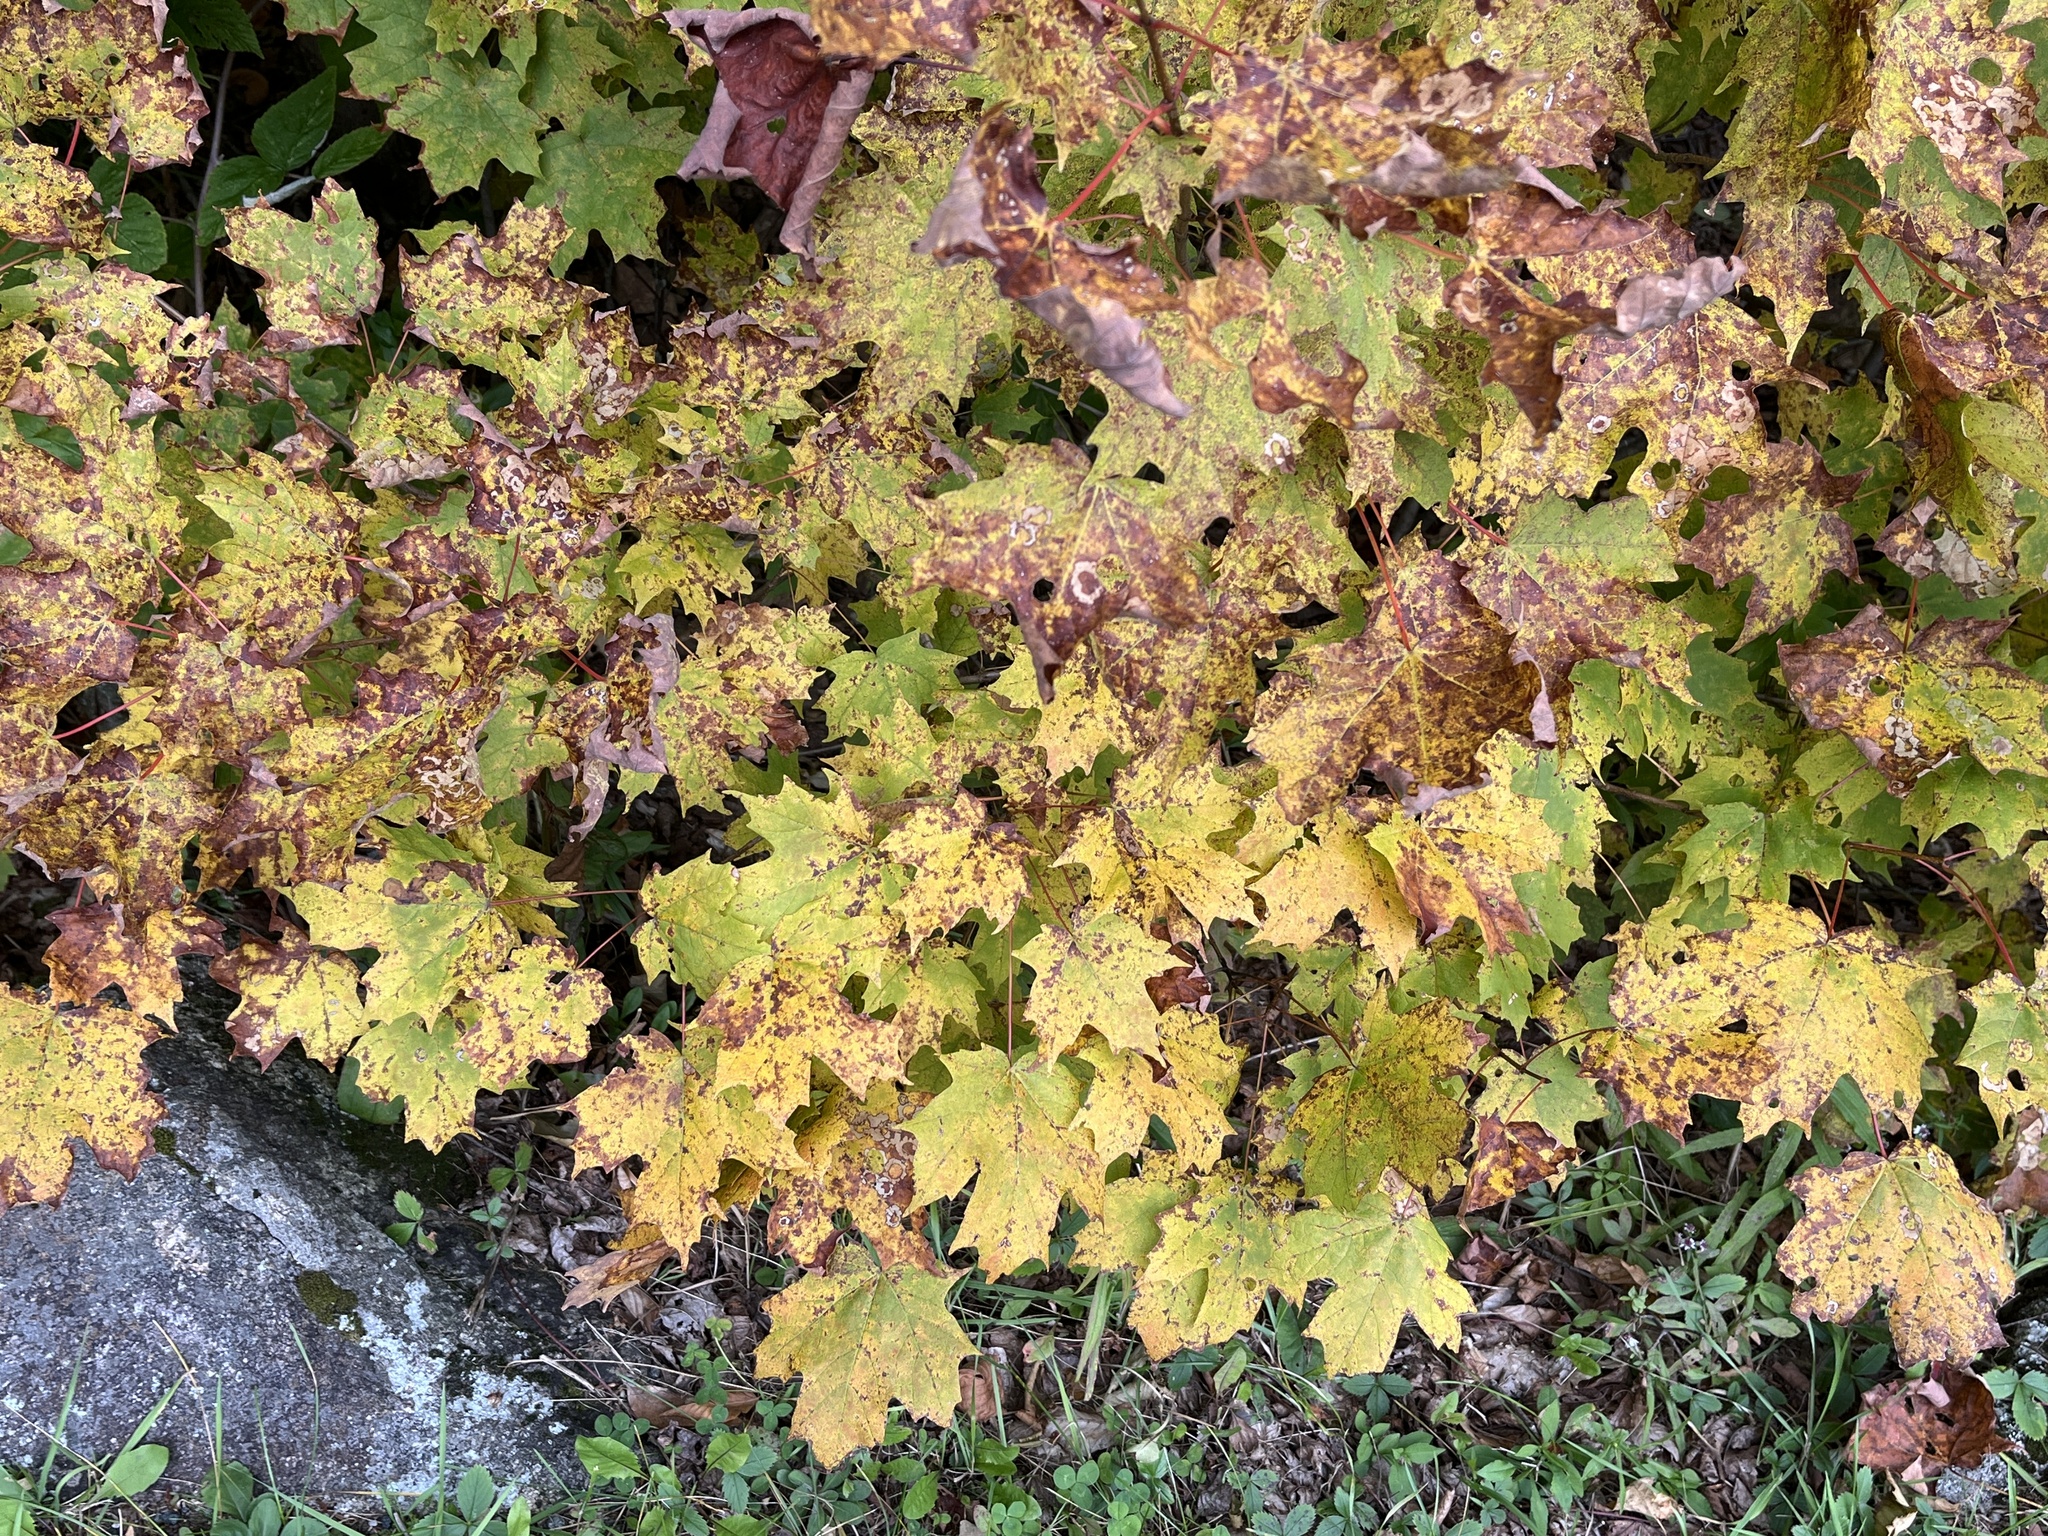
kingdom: Plantae
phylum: Tracheophyta
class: Magnoliopsida
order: Sapindales
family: Sapindaceae
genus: Acer
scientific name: Acer saccharum
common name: Sugar maple
